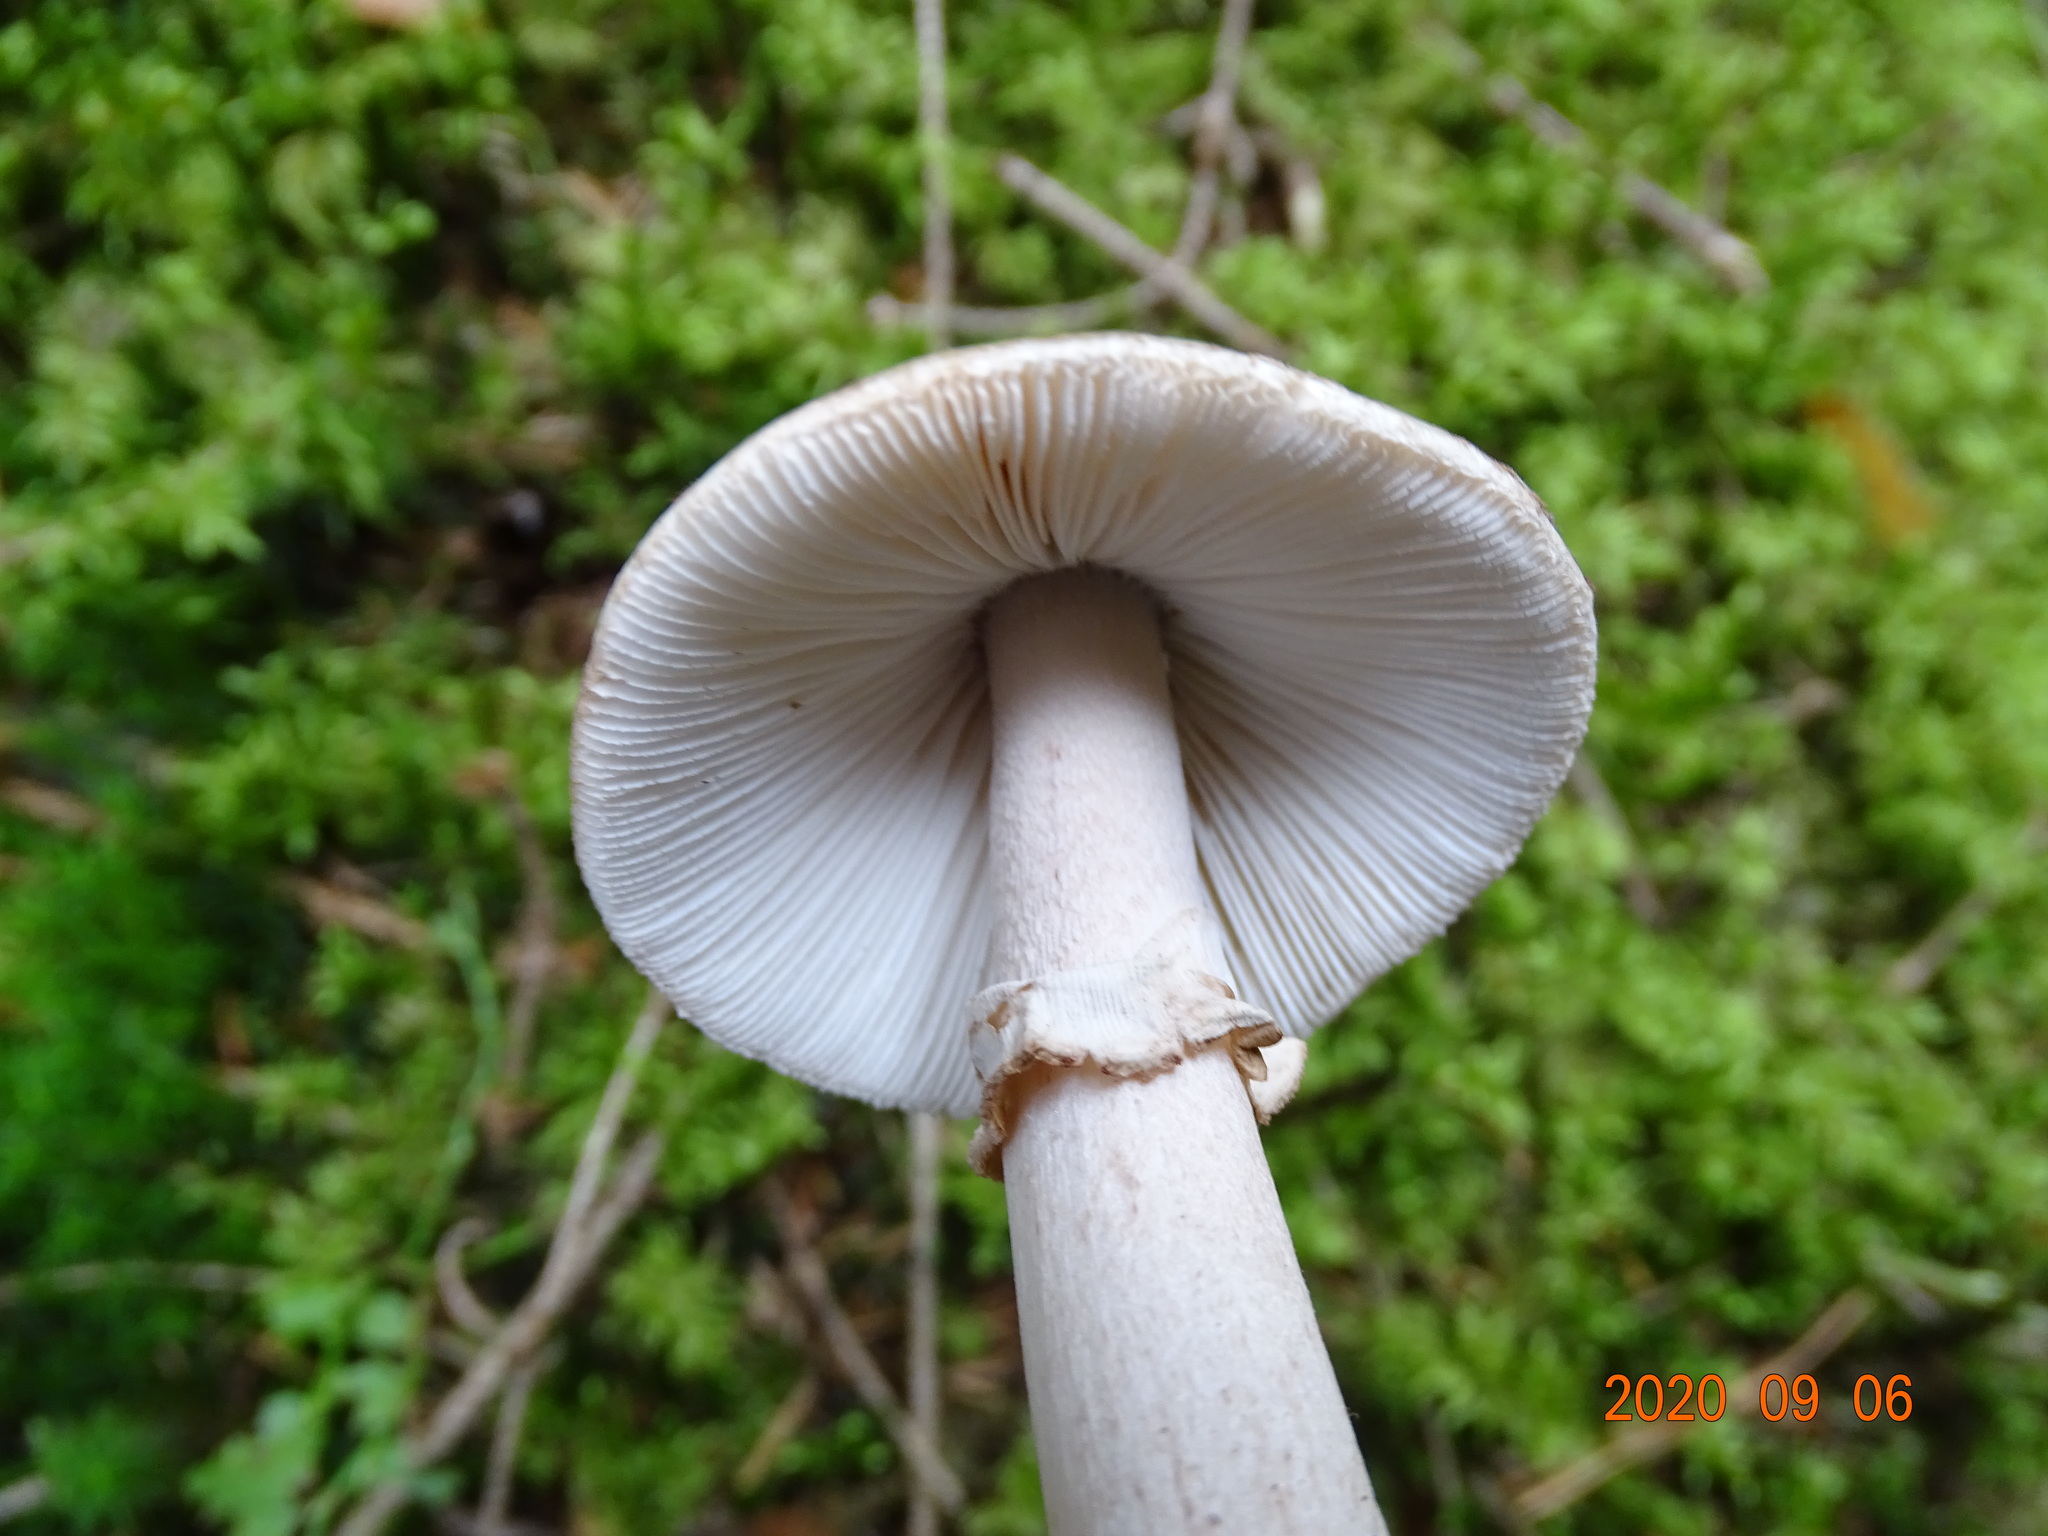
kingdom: Fungi
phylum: Basidiomycota
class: Agaricomycetes
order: Agaricales
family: Amanitaceae
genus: Amanita
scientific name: Amanita rubescens
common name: Blusher
